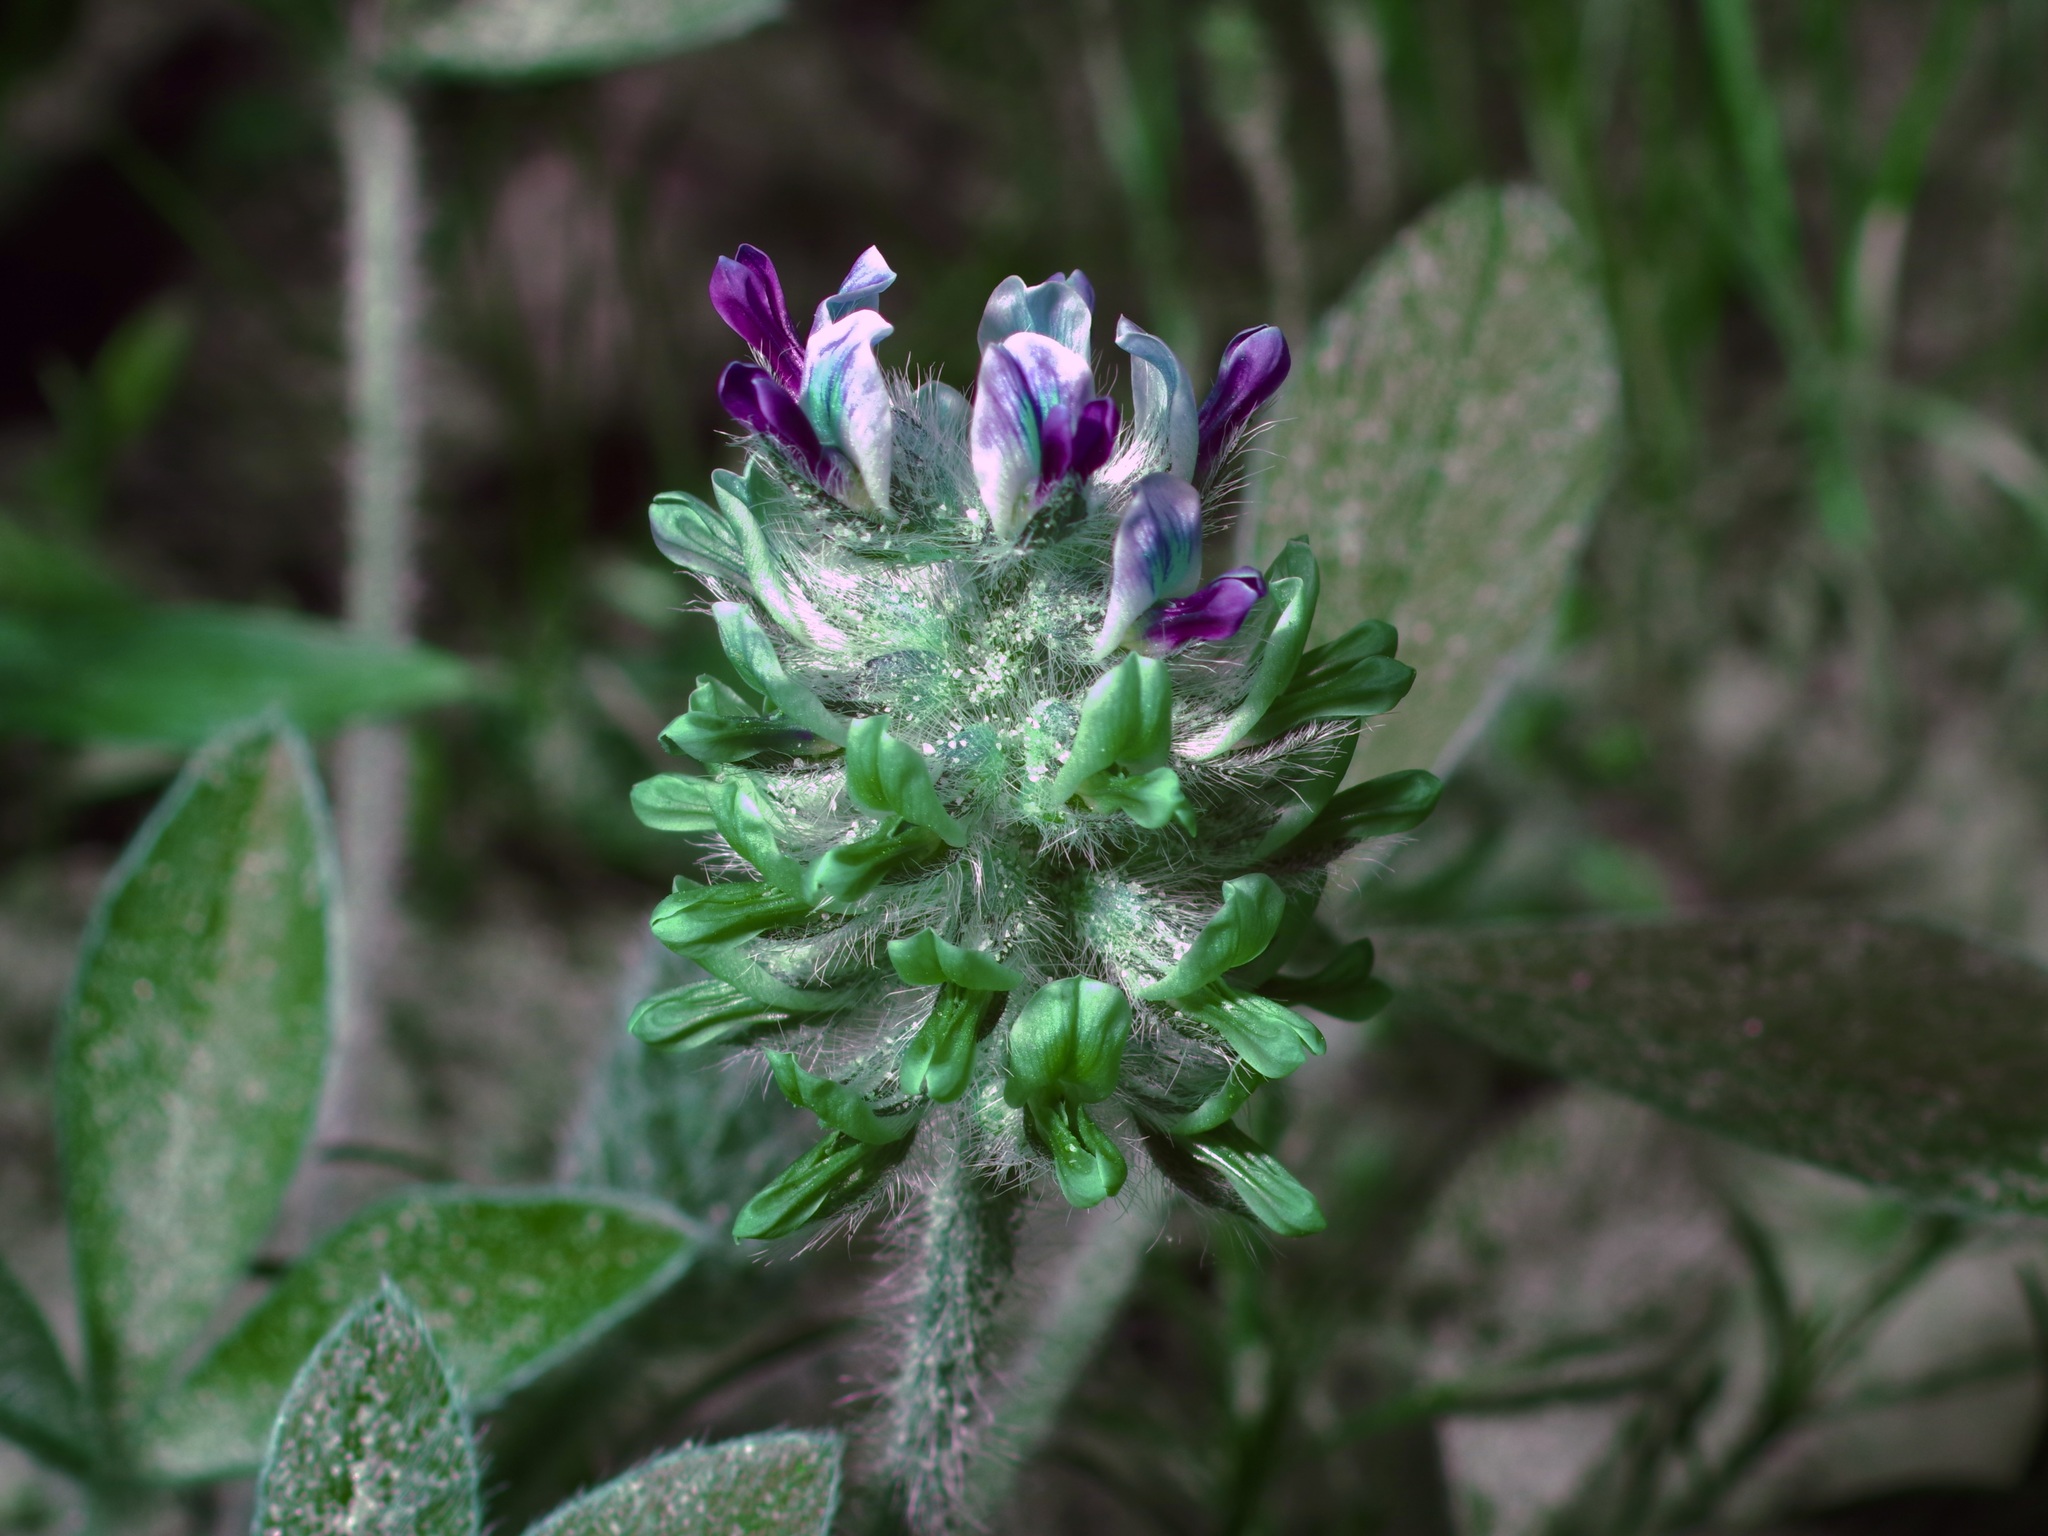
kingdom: Plantae
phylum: Tracheophyta
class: Magnoliopsida
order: Fabales
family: Fabaceae
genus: Pediomelum
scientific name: Pediomelum hypogaeum
